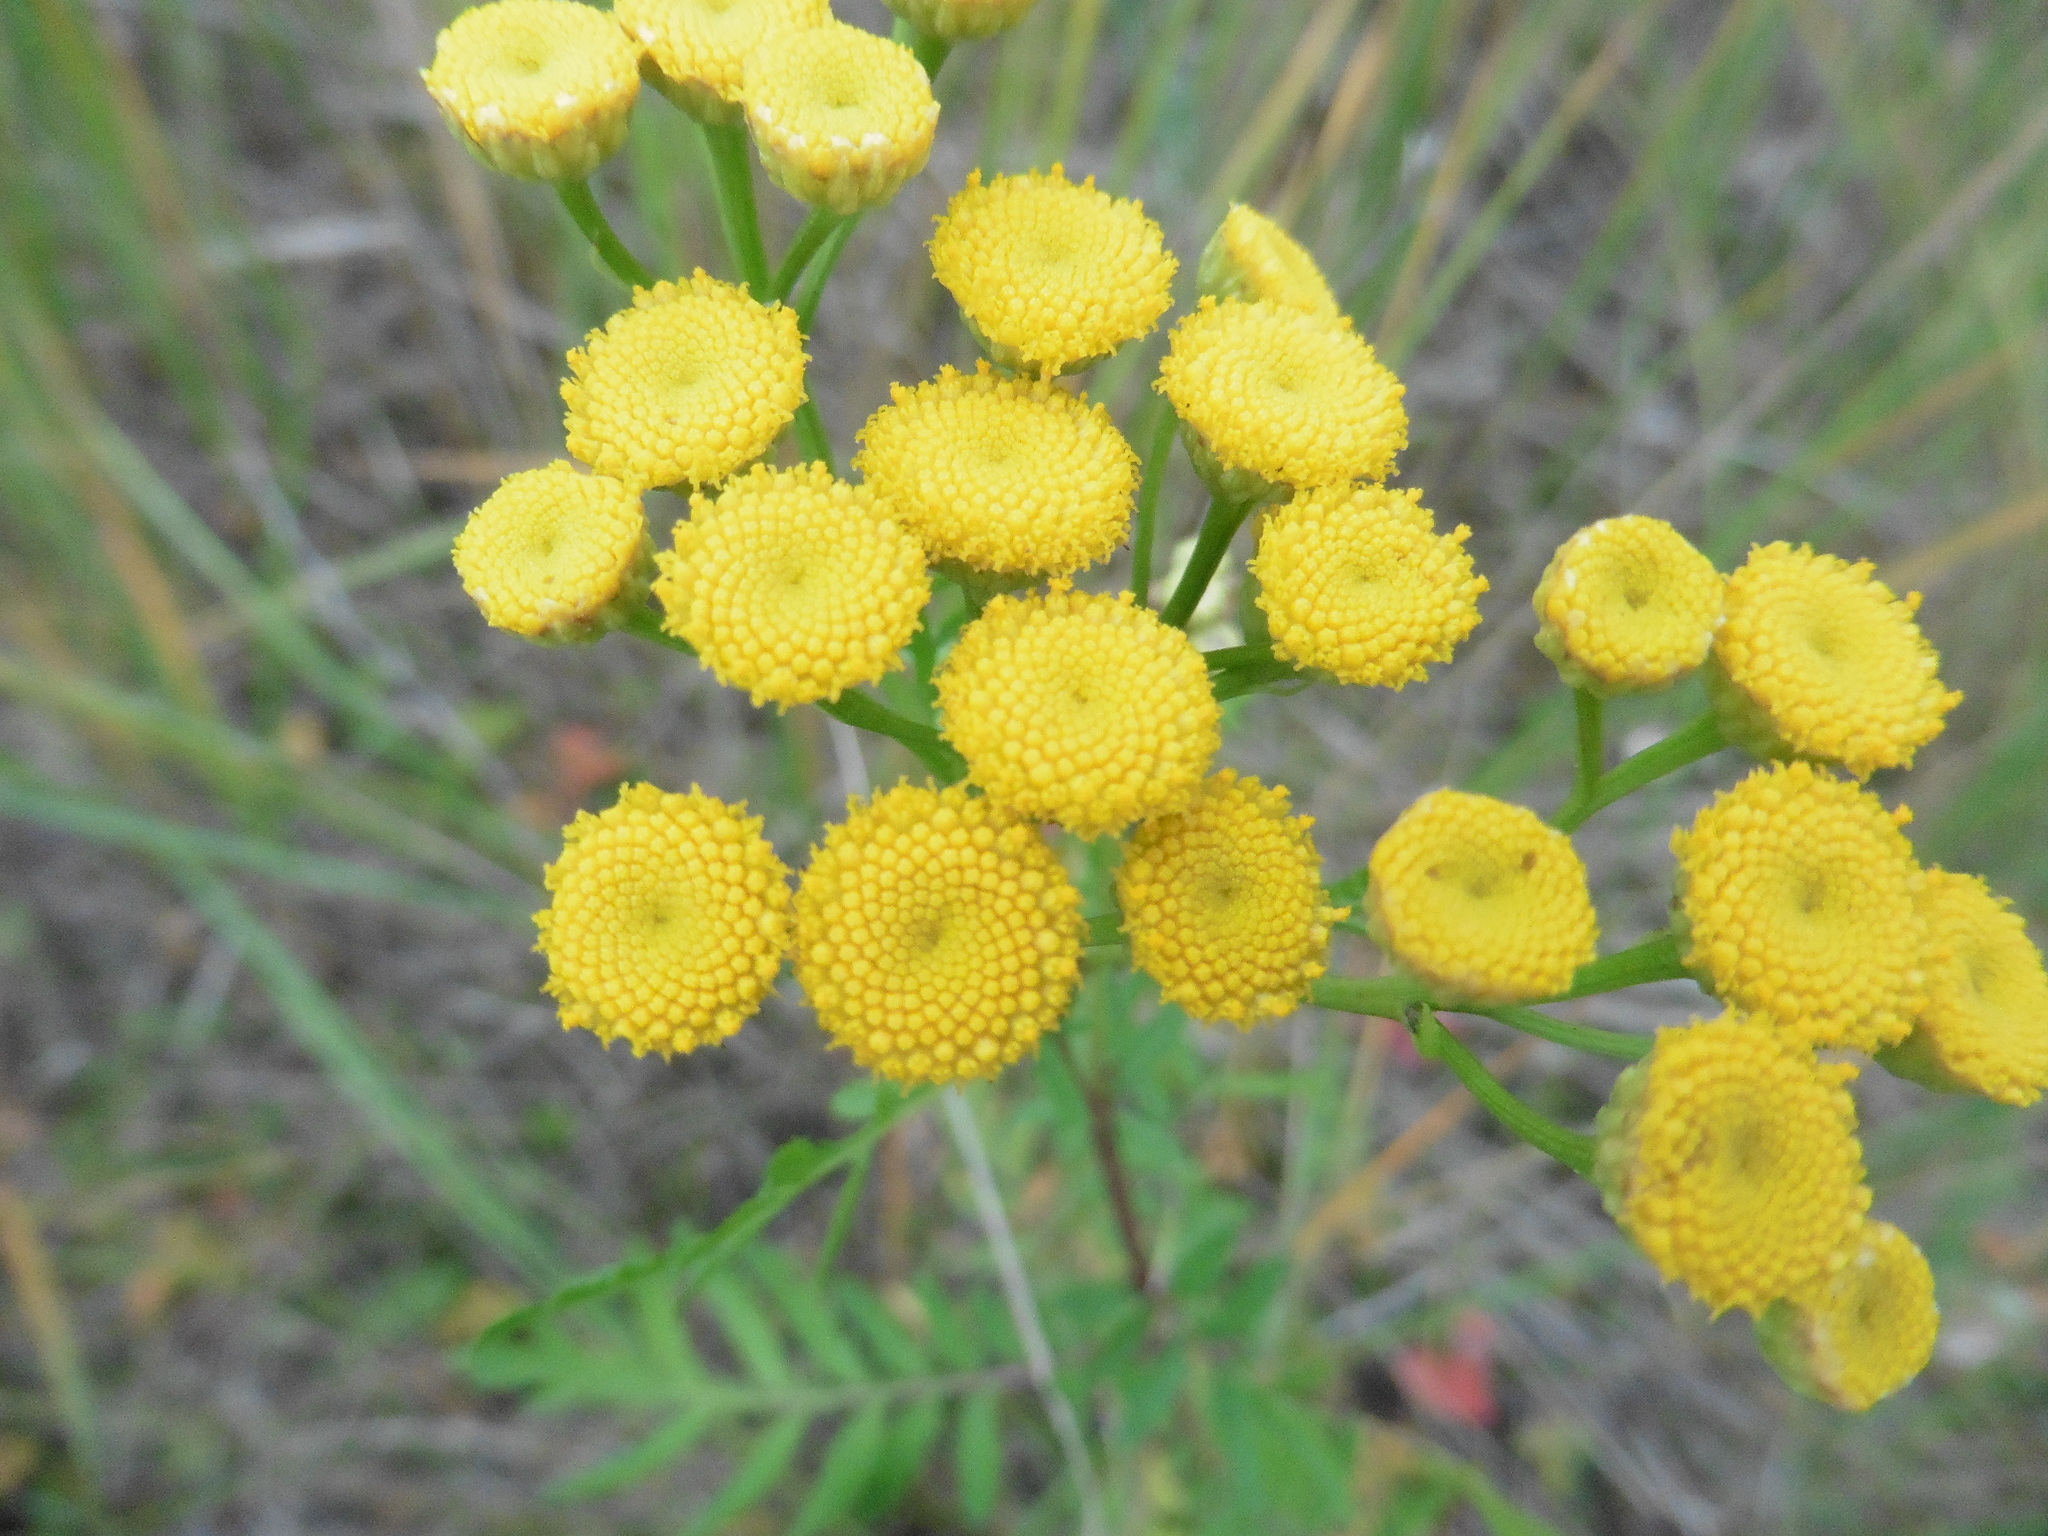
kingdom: Plantae
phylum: Tracheophyta
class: Magnoliopsida
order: Asterales
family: Asteraceae
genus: Tanacetum
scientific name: Tanacetum vulgare
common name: Common tansy
